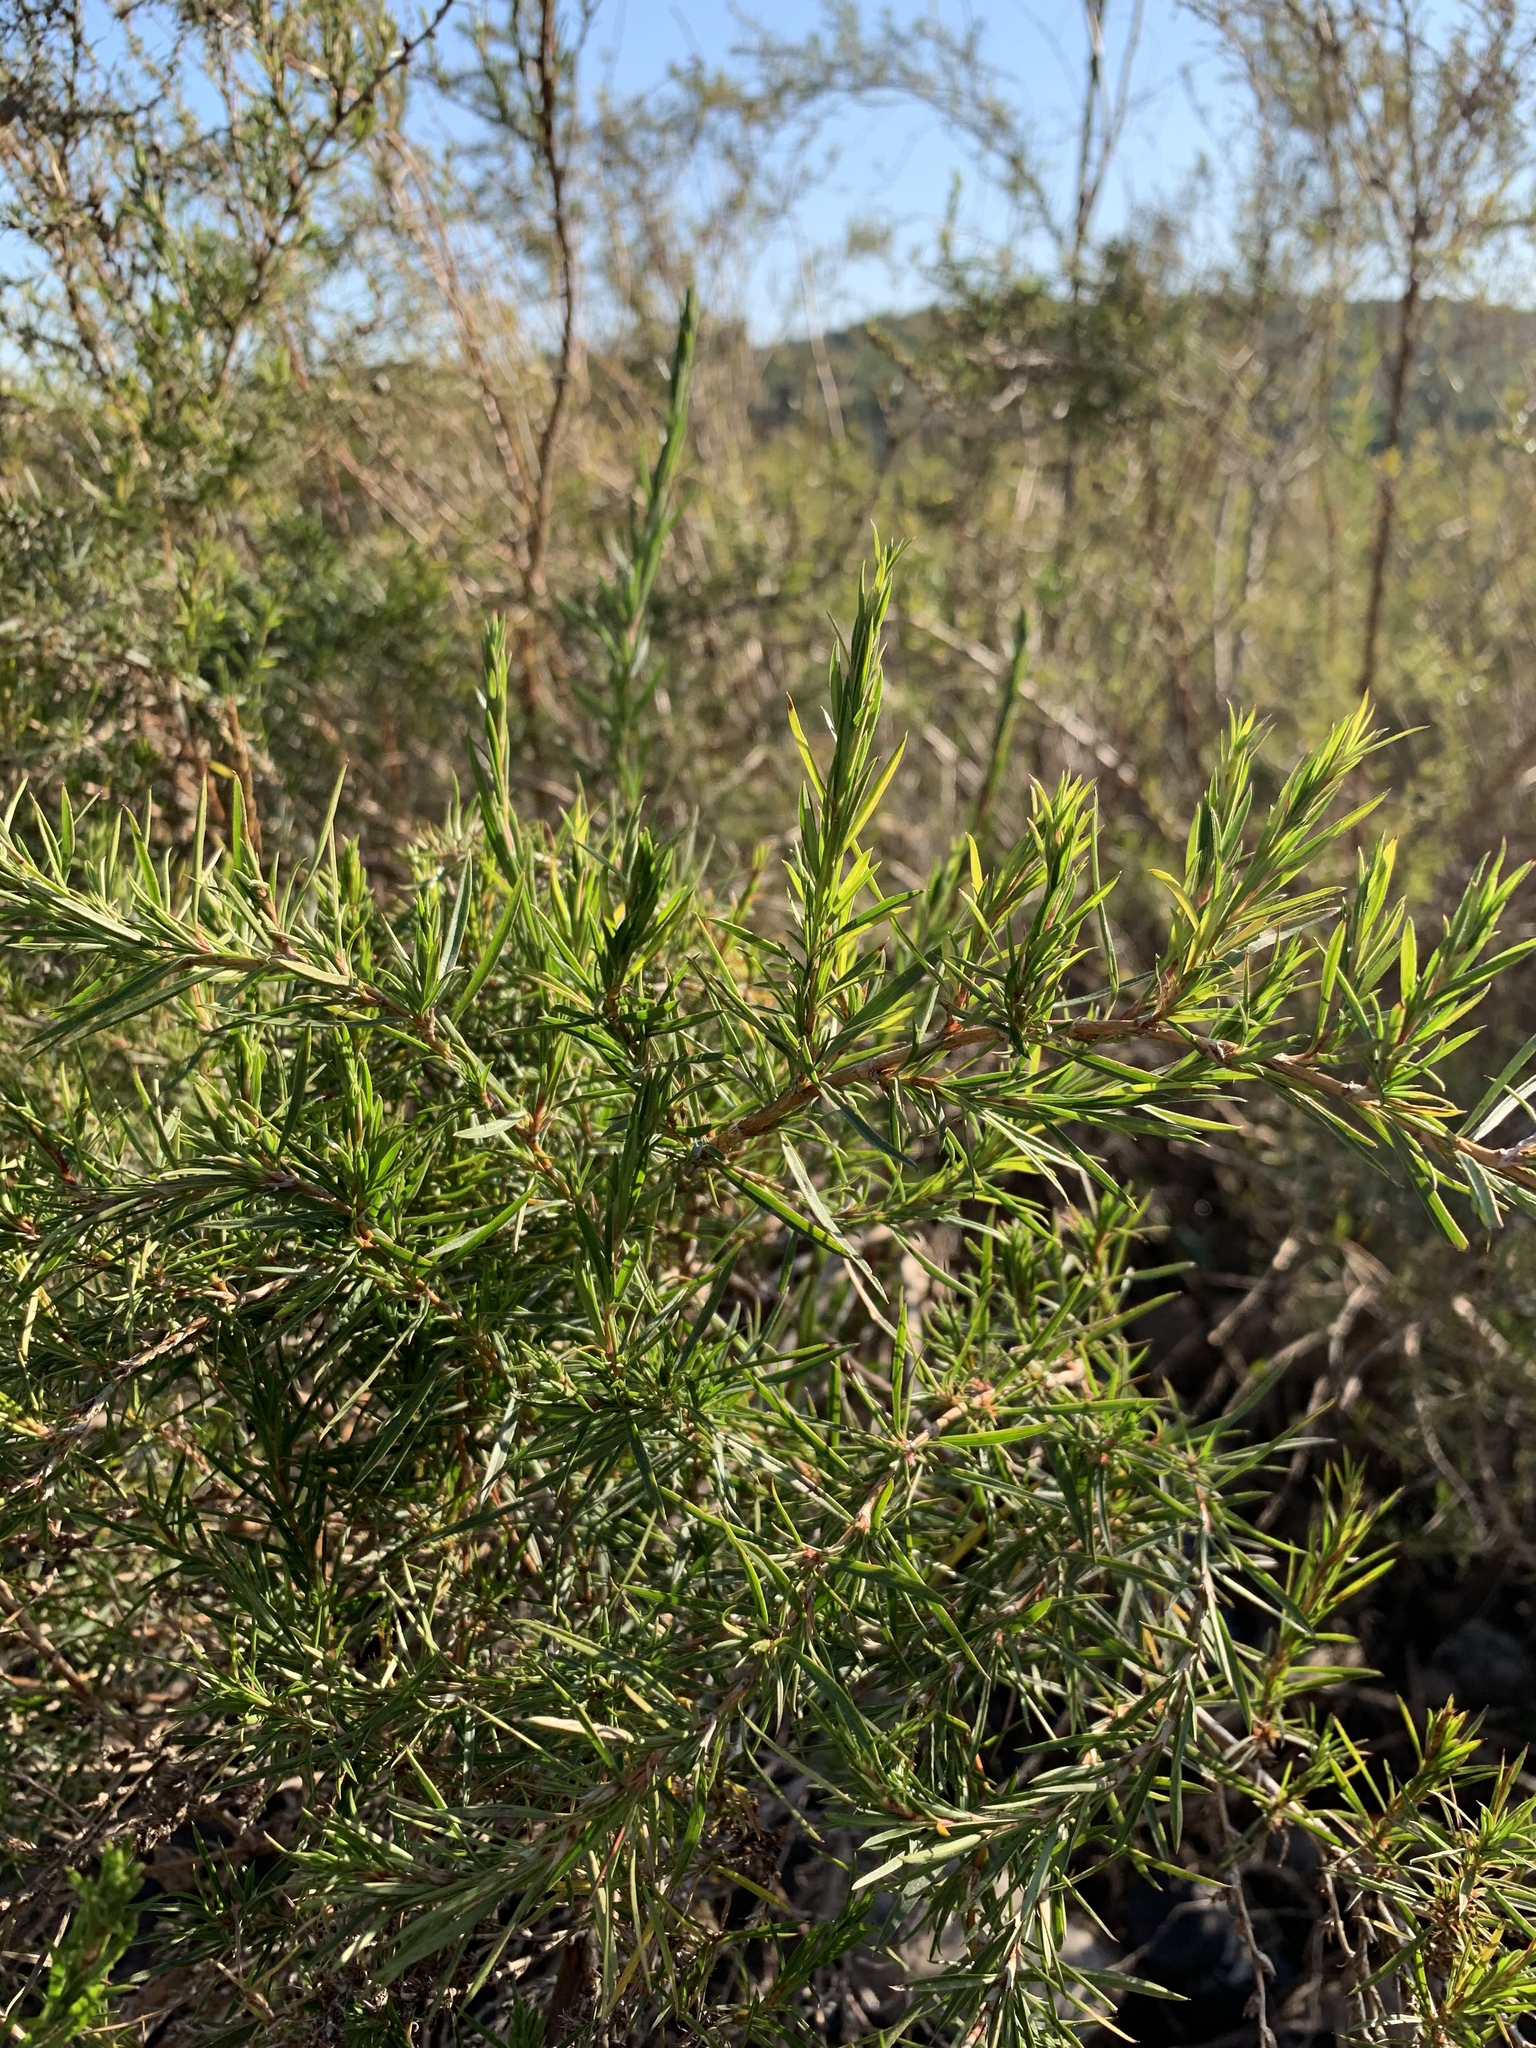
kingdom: Plantae
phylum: Tracheophyta
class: Magnoliopsida
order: Rosales
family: Rosaceae
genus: Cliffortia
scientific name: Cliffortia strobilifera
